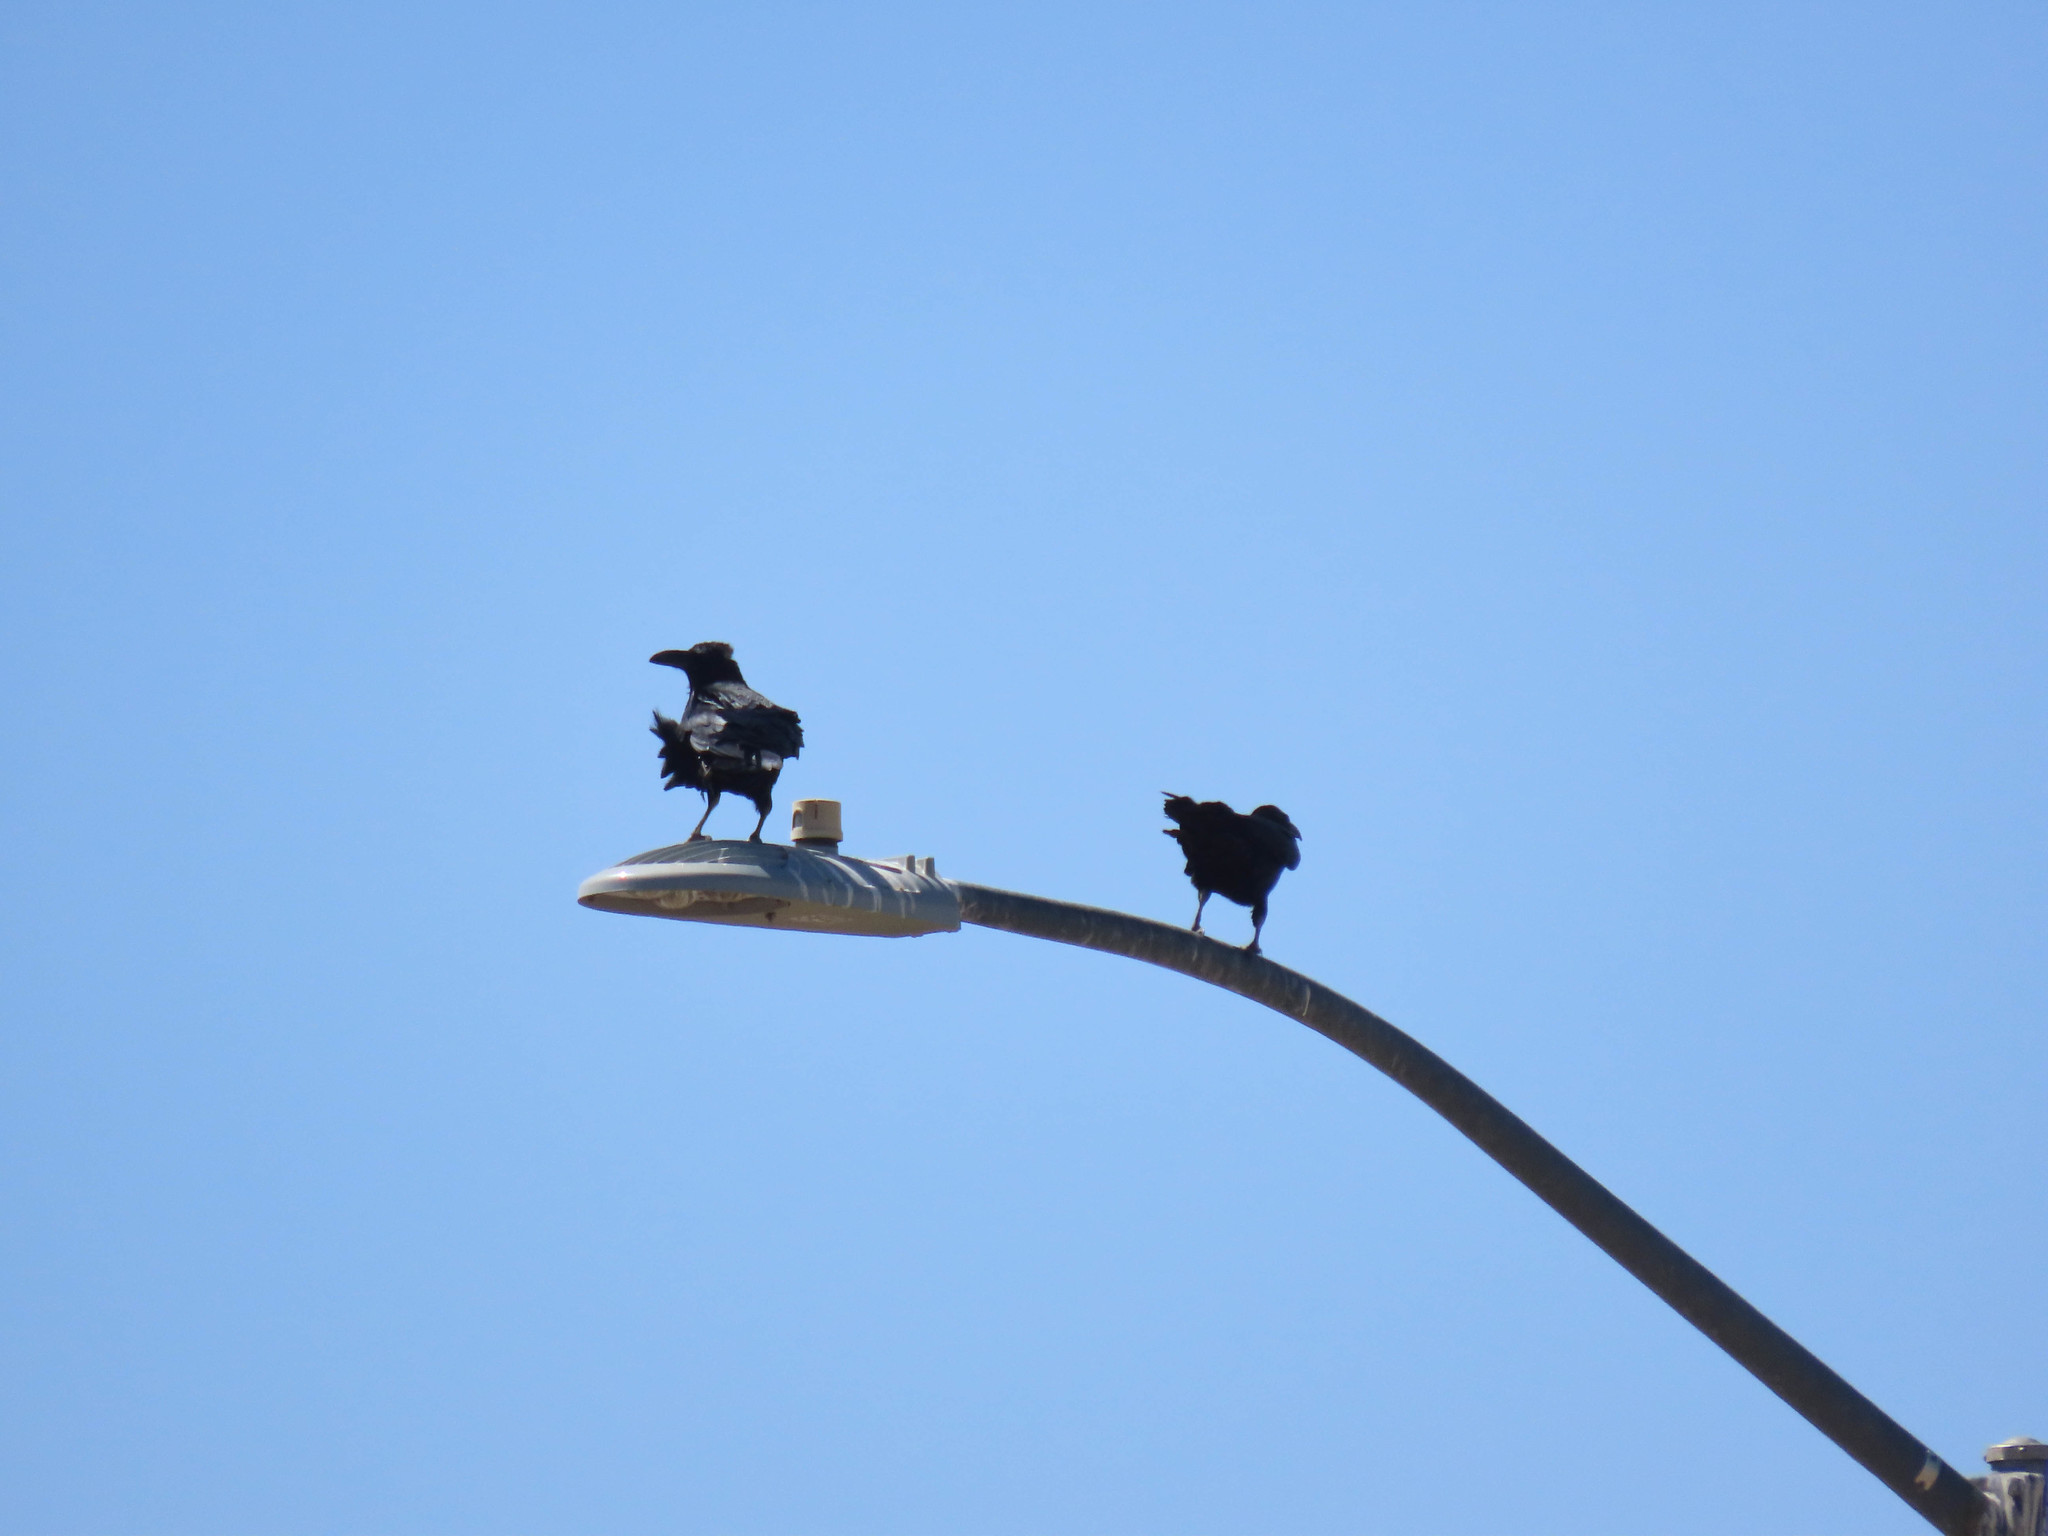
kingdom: Animalia
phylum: Chordata
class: Aves
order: Passeriformes
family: Corvidae
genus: Corvus
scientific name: Corvus corax
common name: Common raven
